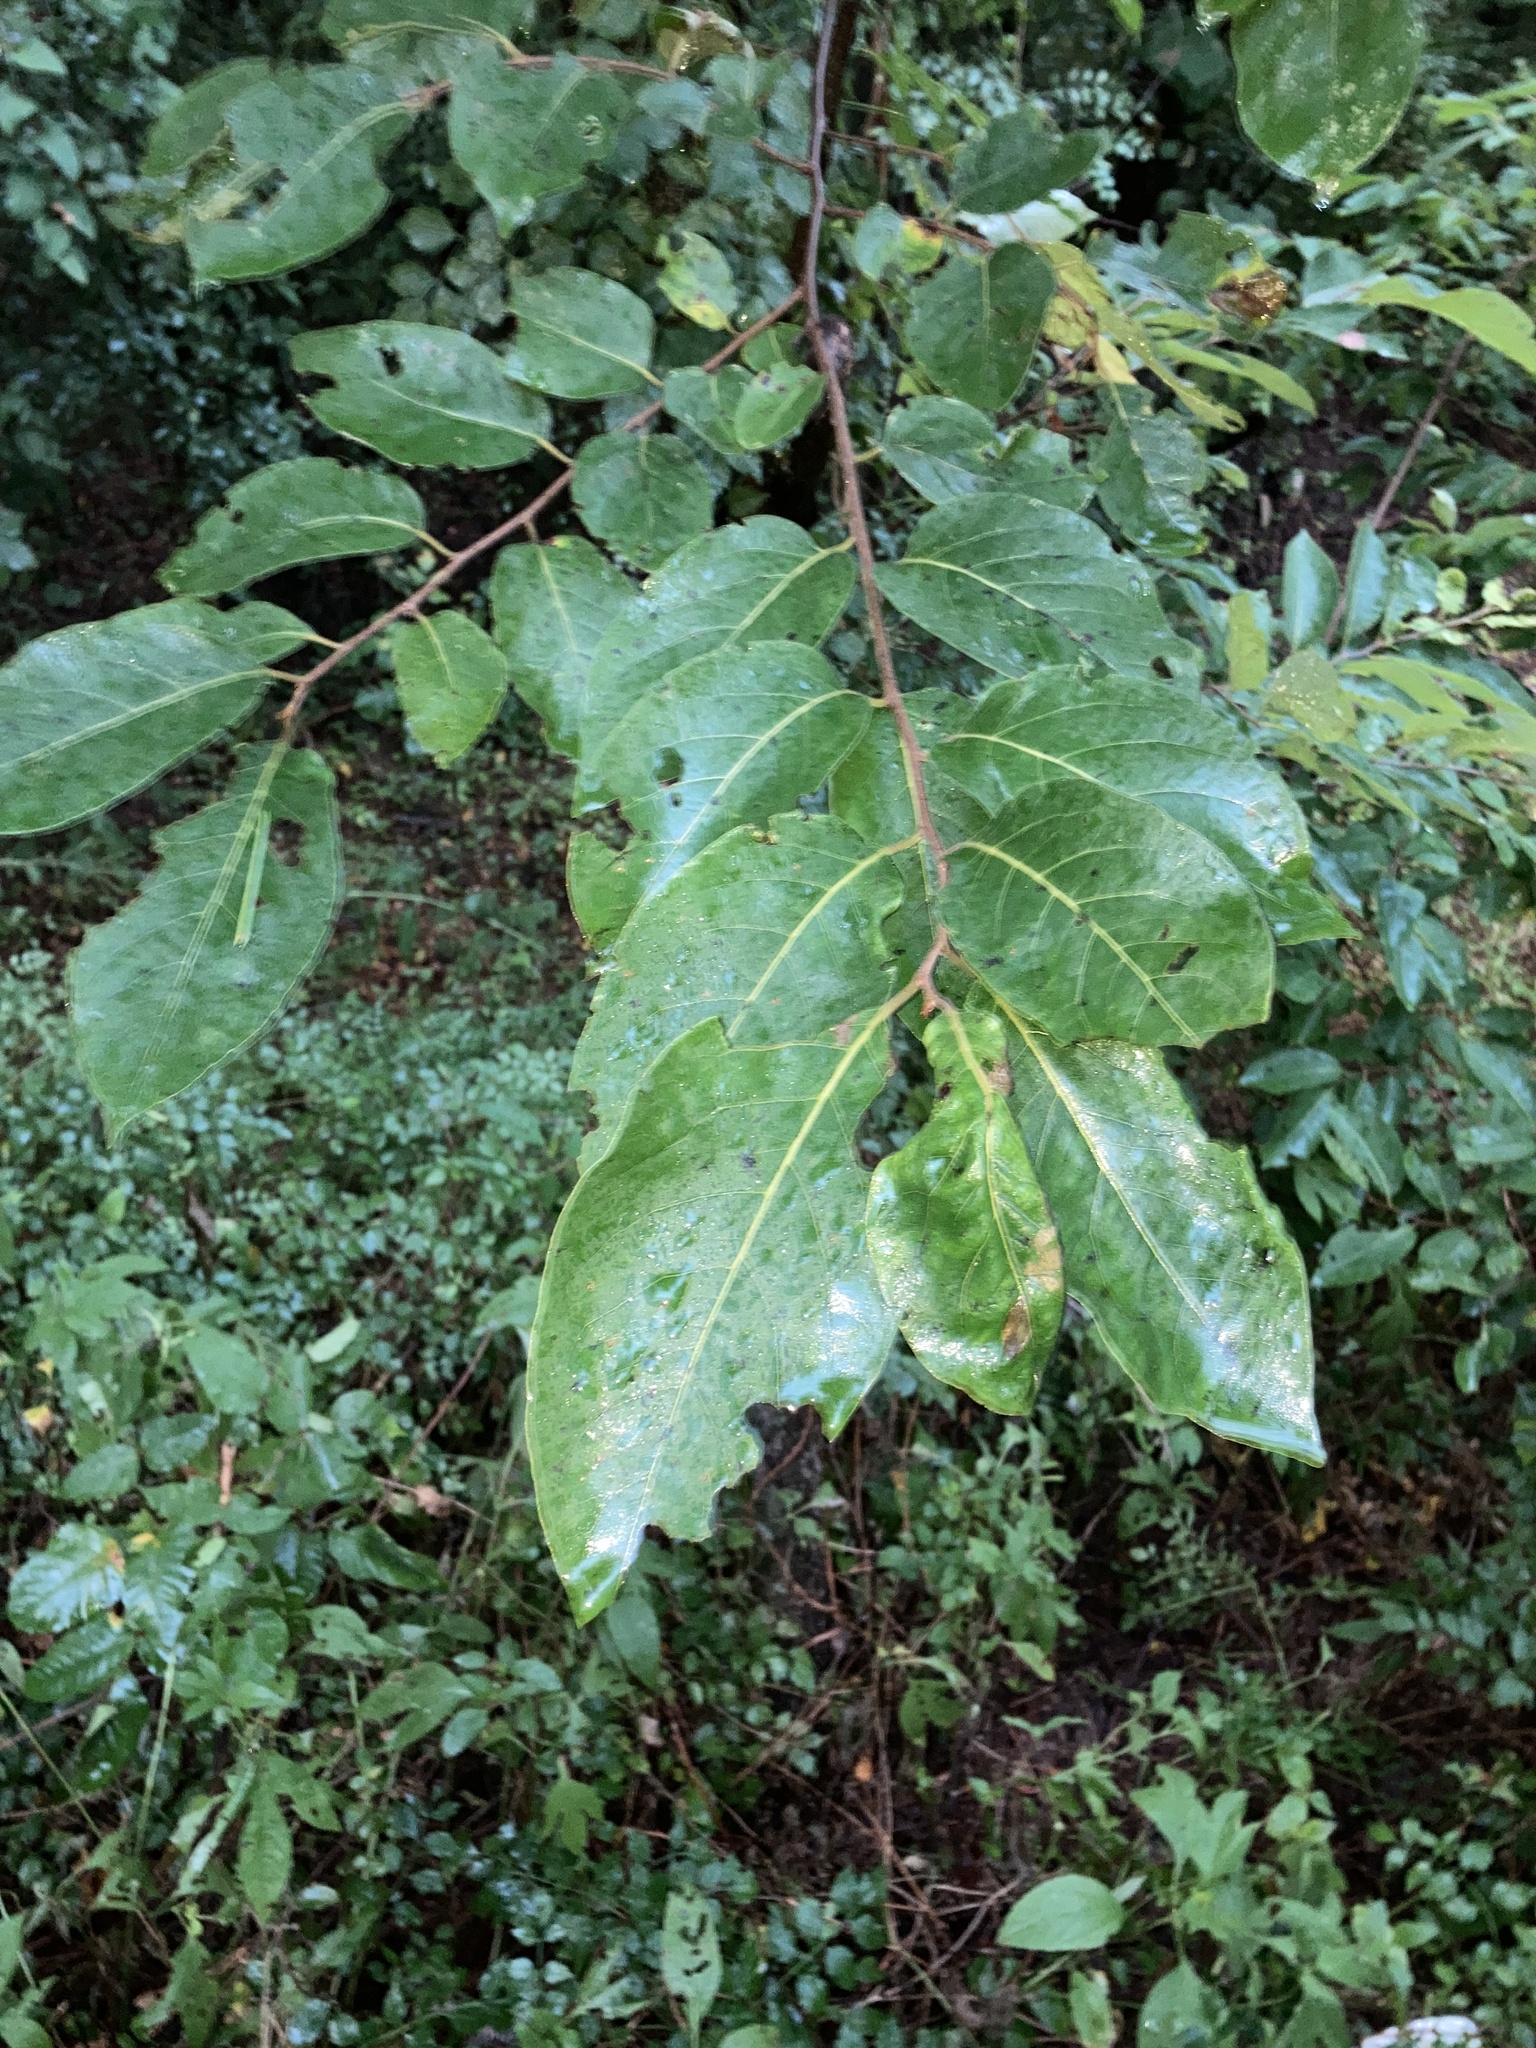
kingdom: Plantae
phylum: Tracheophyta
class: Magnoliopsida
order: Ericales
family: Ebenaceae
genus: Diospyros
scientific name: Diospyros virginiana
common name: Persimmon
